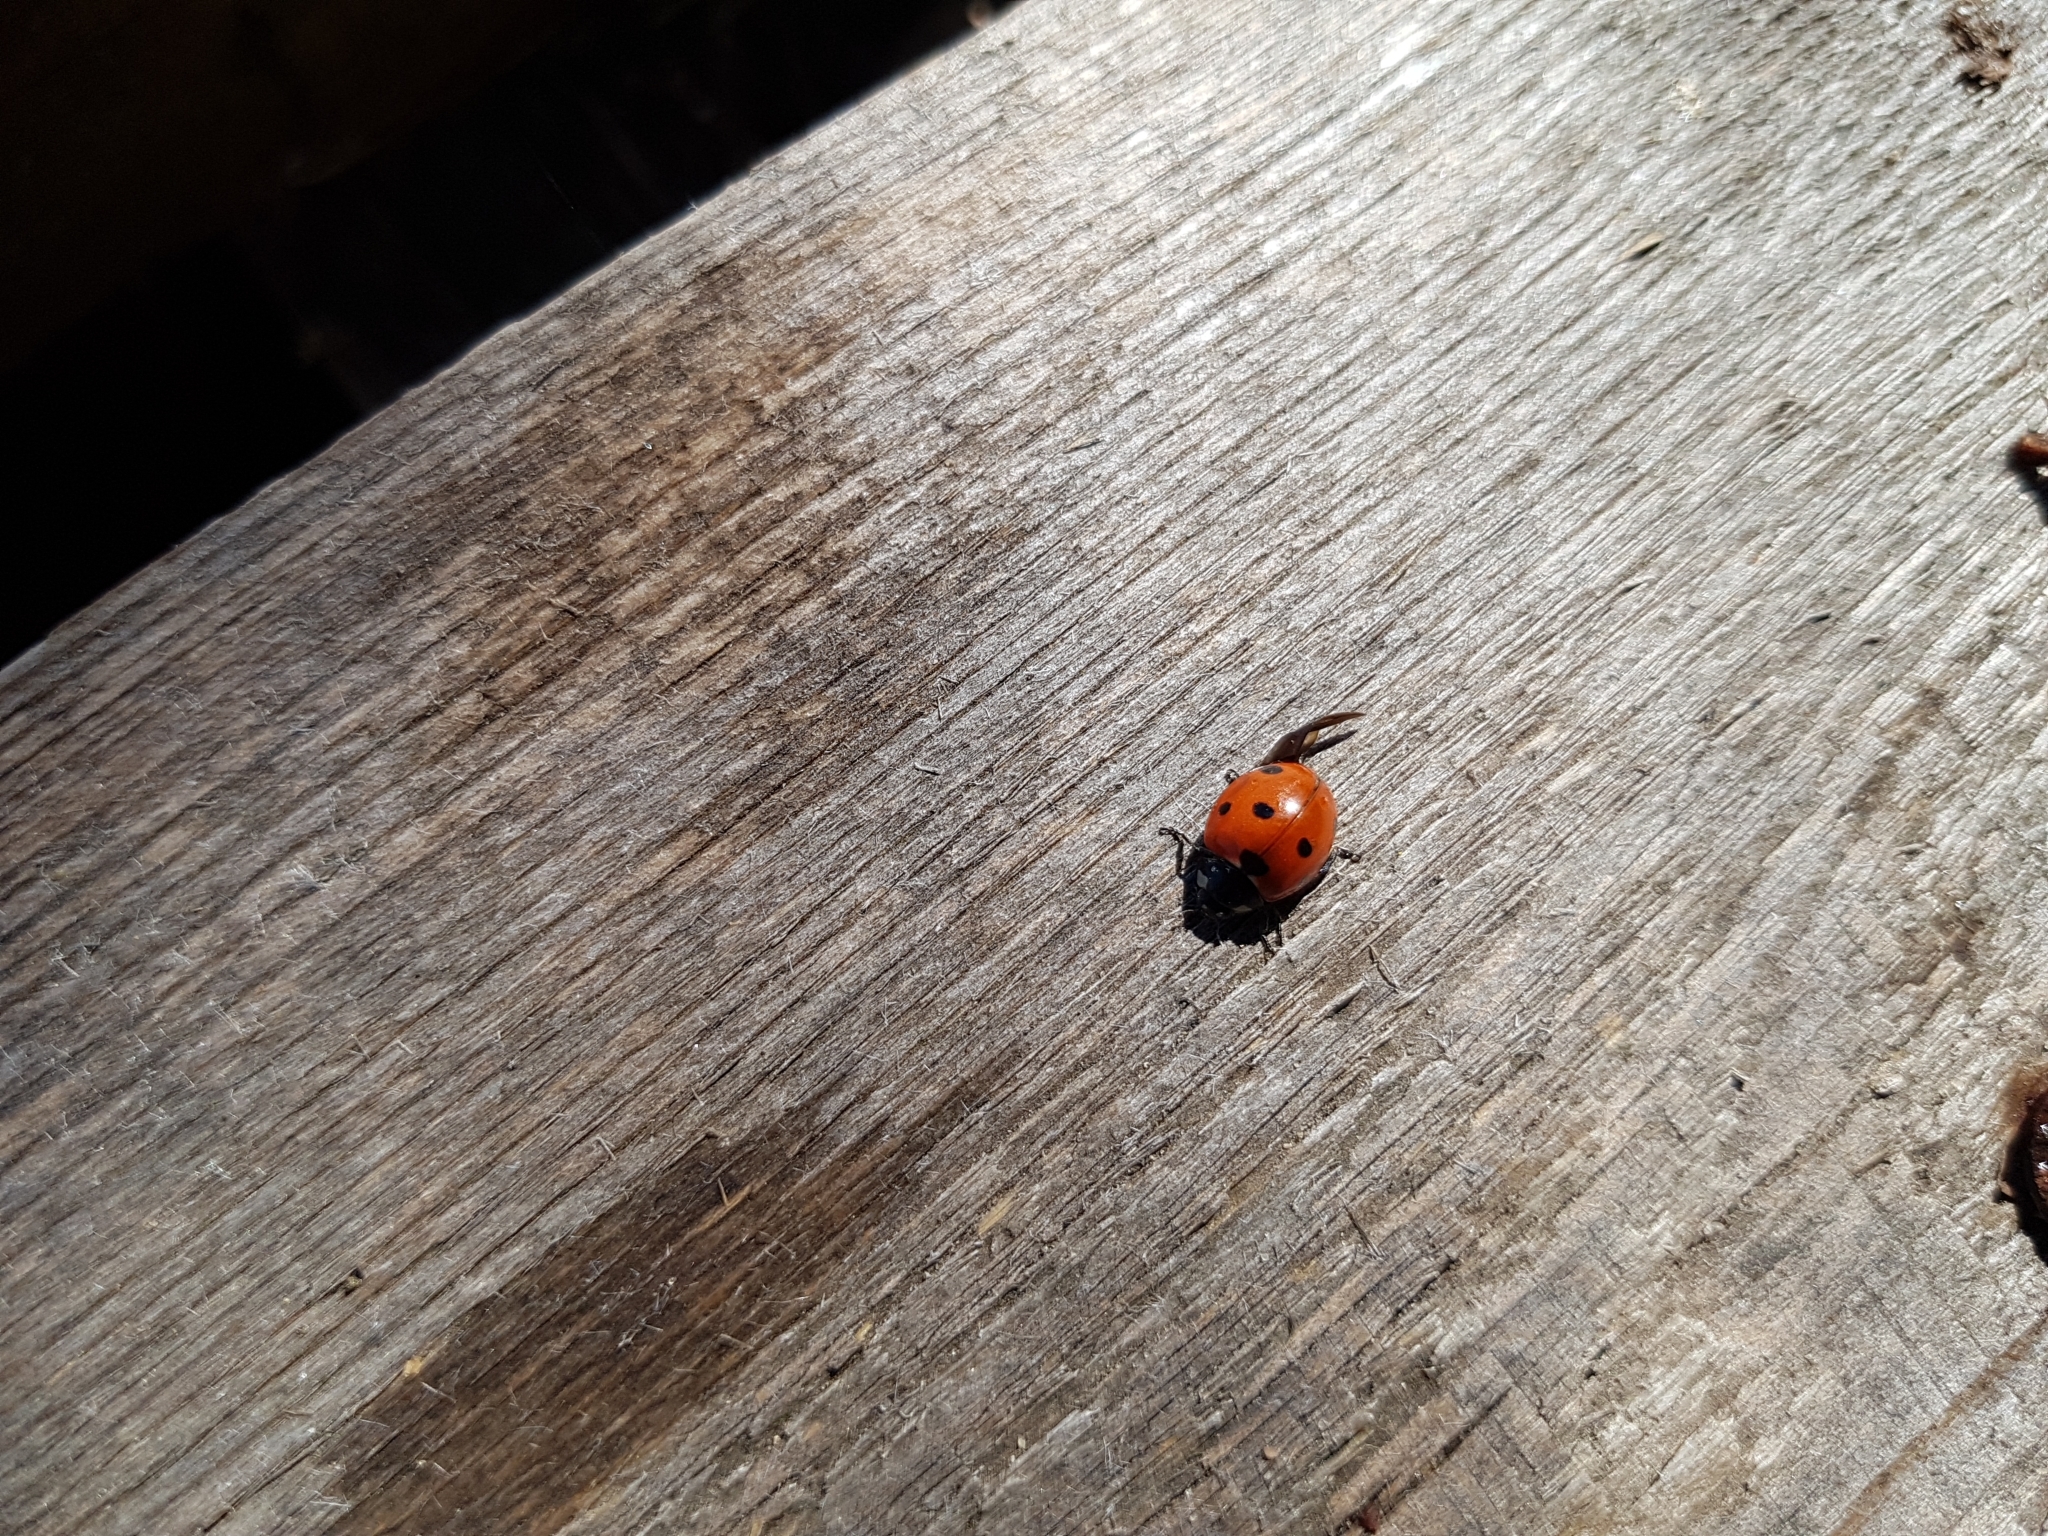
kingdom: Animalia
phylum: Arthropoda
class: Insecta
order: Coleoptera
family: Coccinellidae
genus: Coccinella
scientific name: Coccinella septempunctata
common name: Sevenspotted lady beetle
